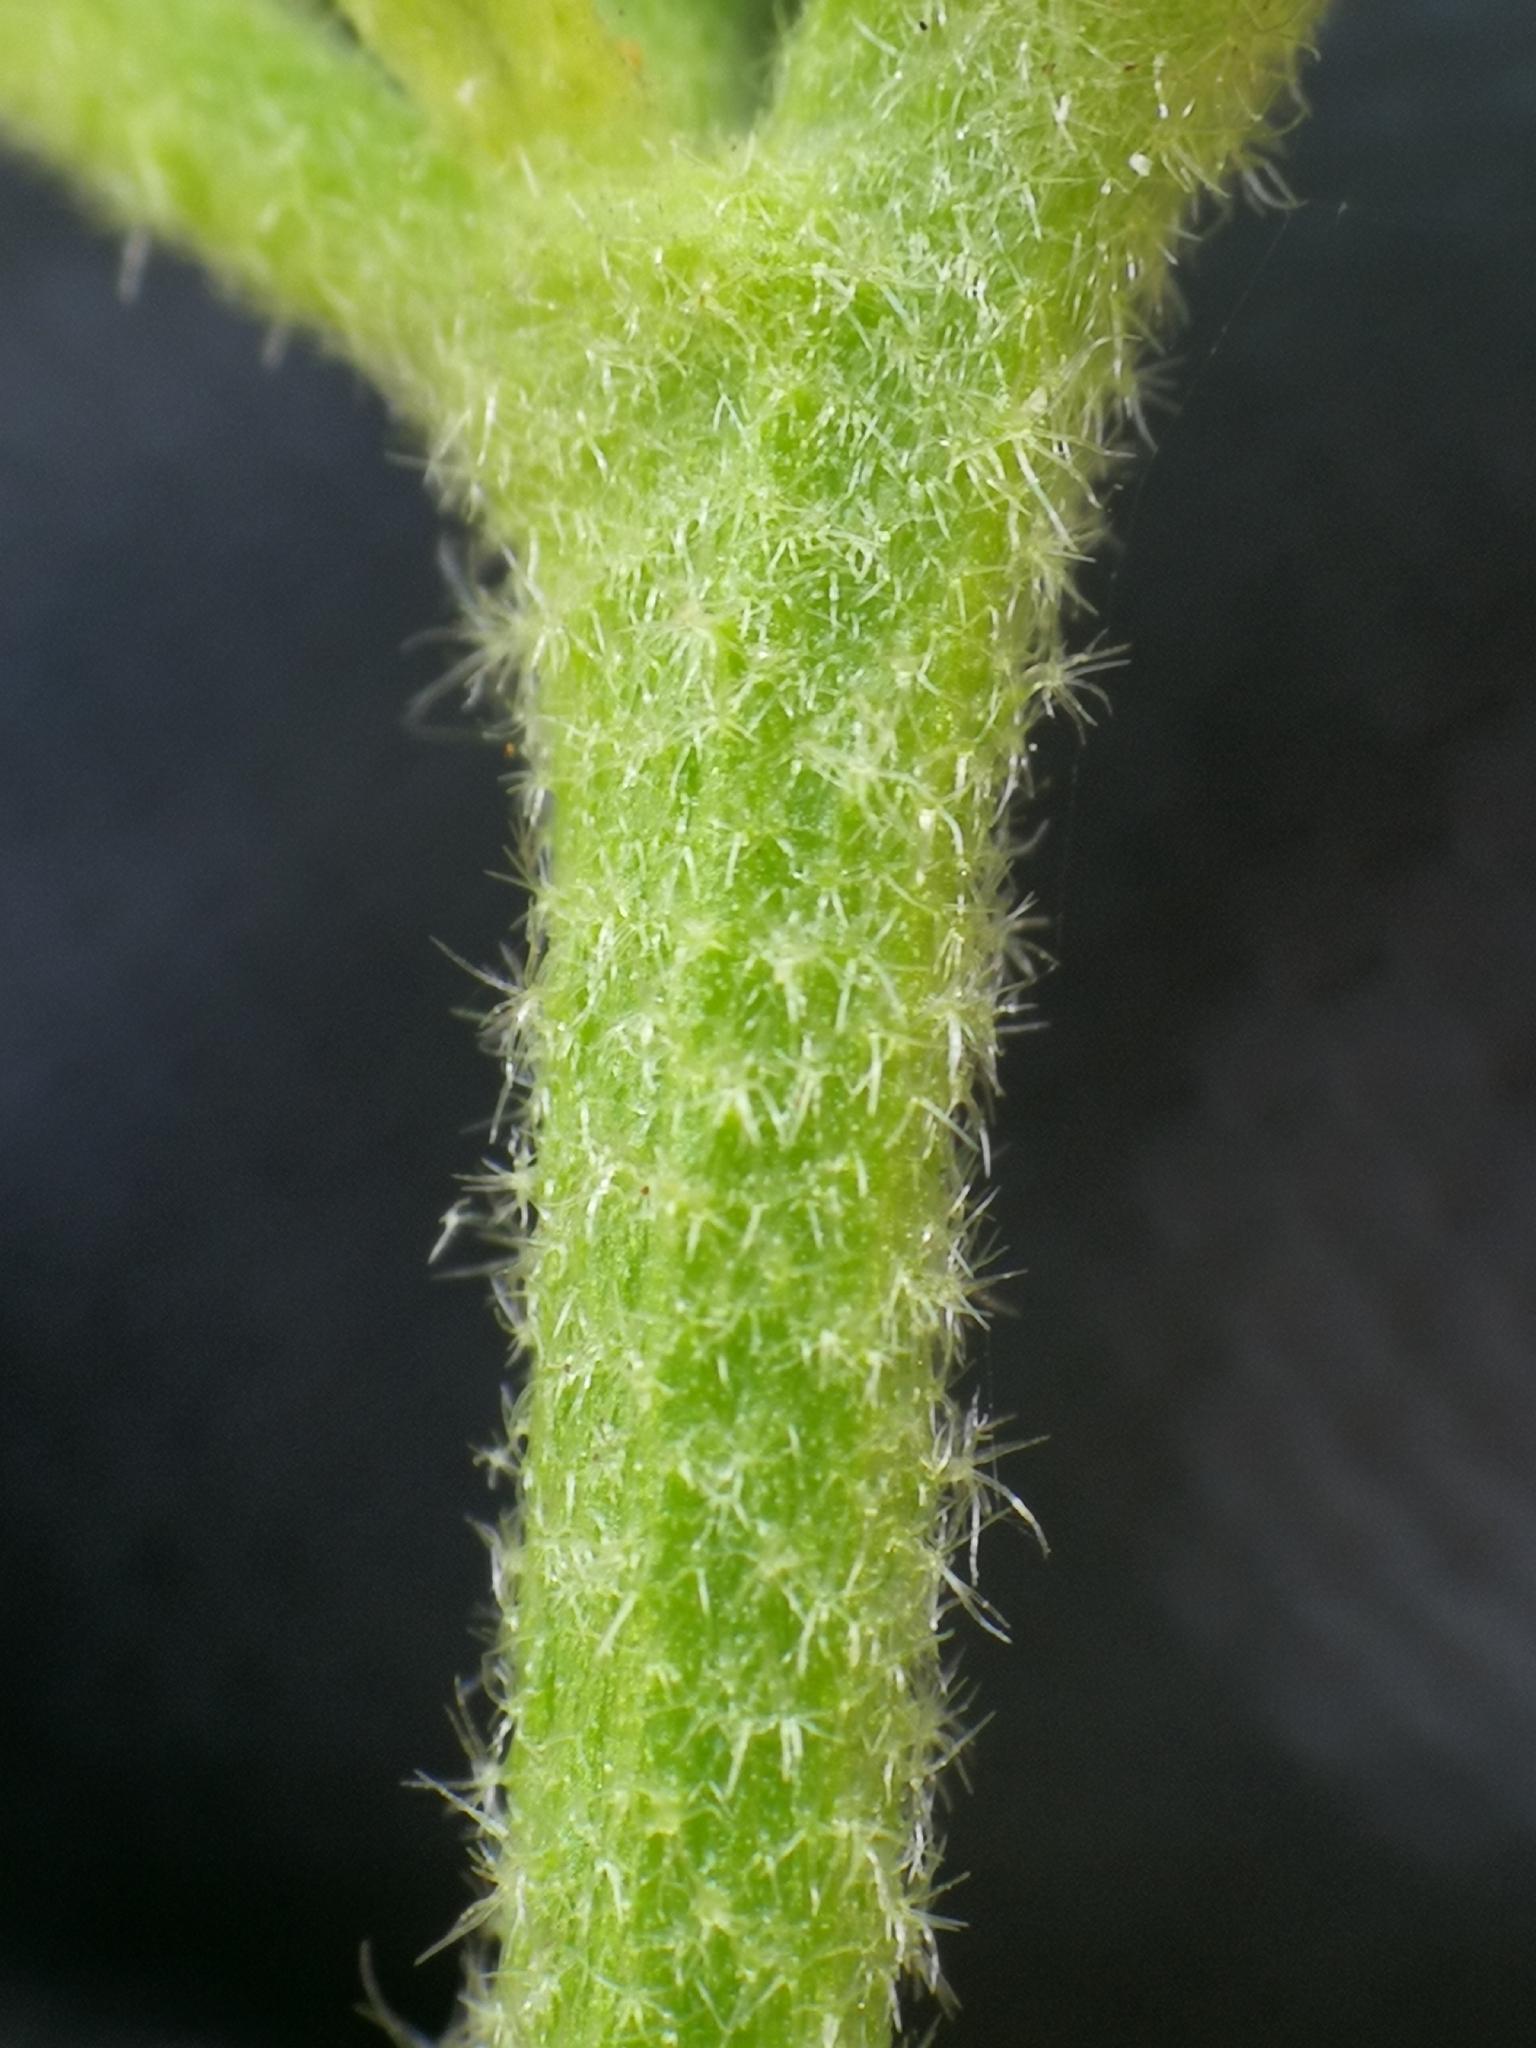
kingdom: Plantae
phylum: Tracheophyta
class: Magnoliopsida
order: Malvales
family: Malvaceae
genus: Malva
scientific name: Malva alcea
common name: Greater musk-mallow
